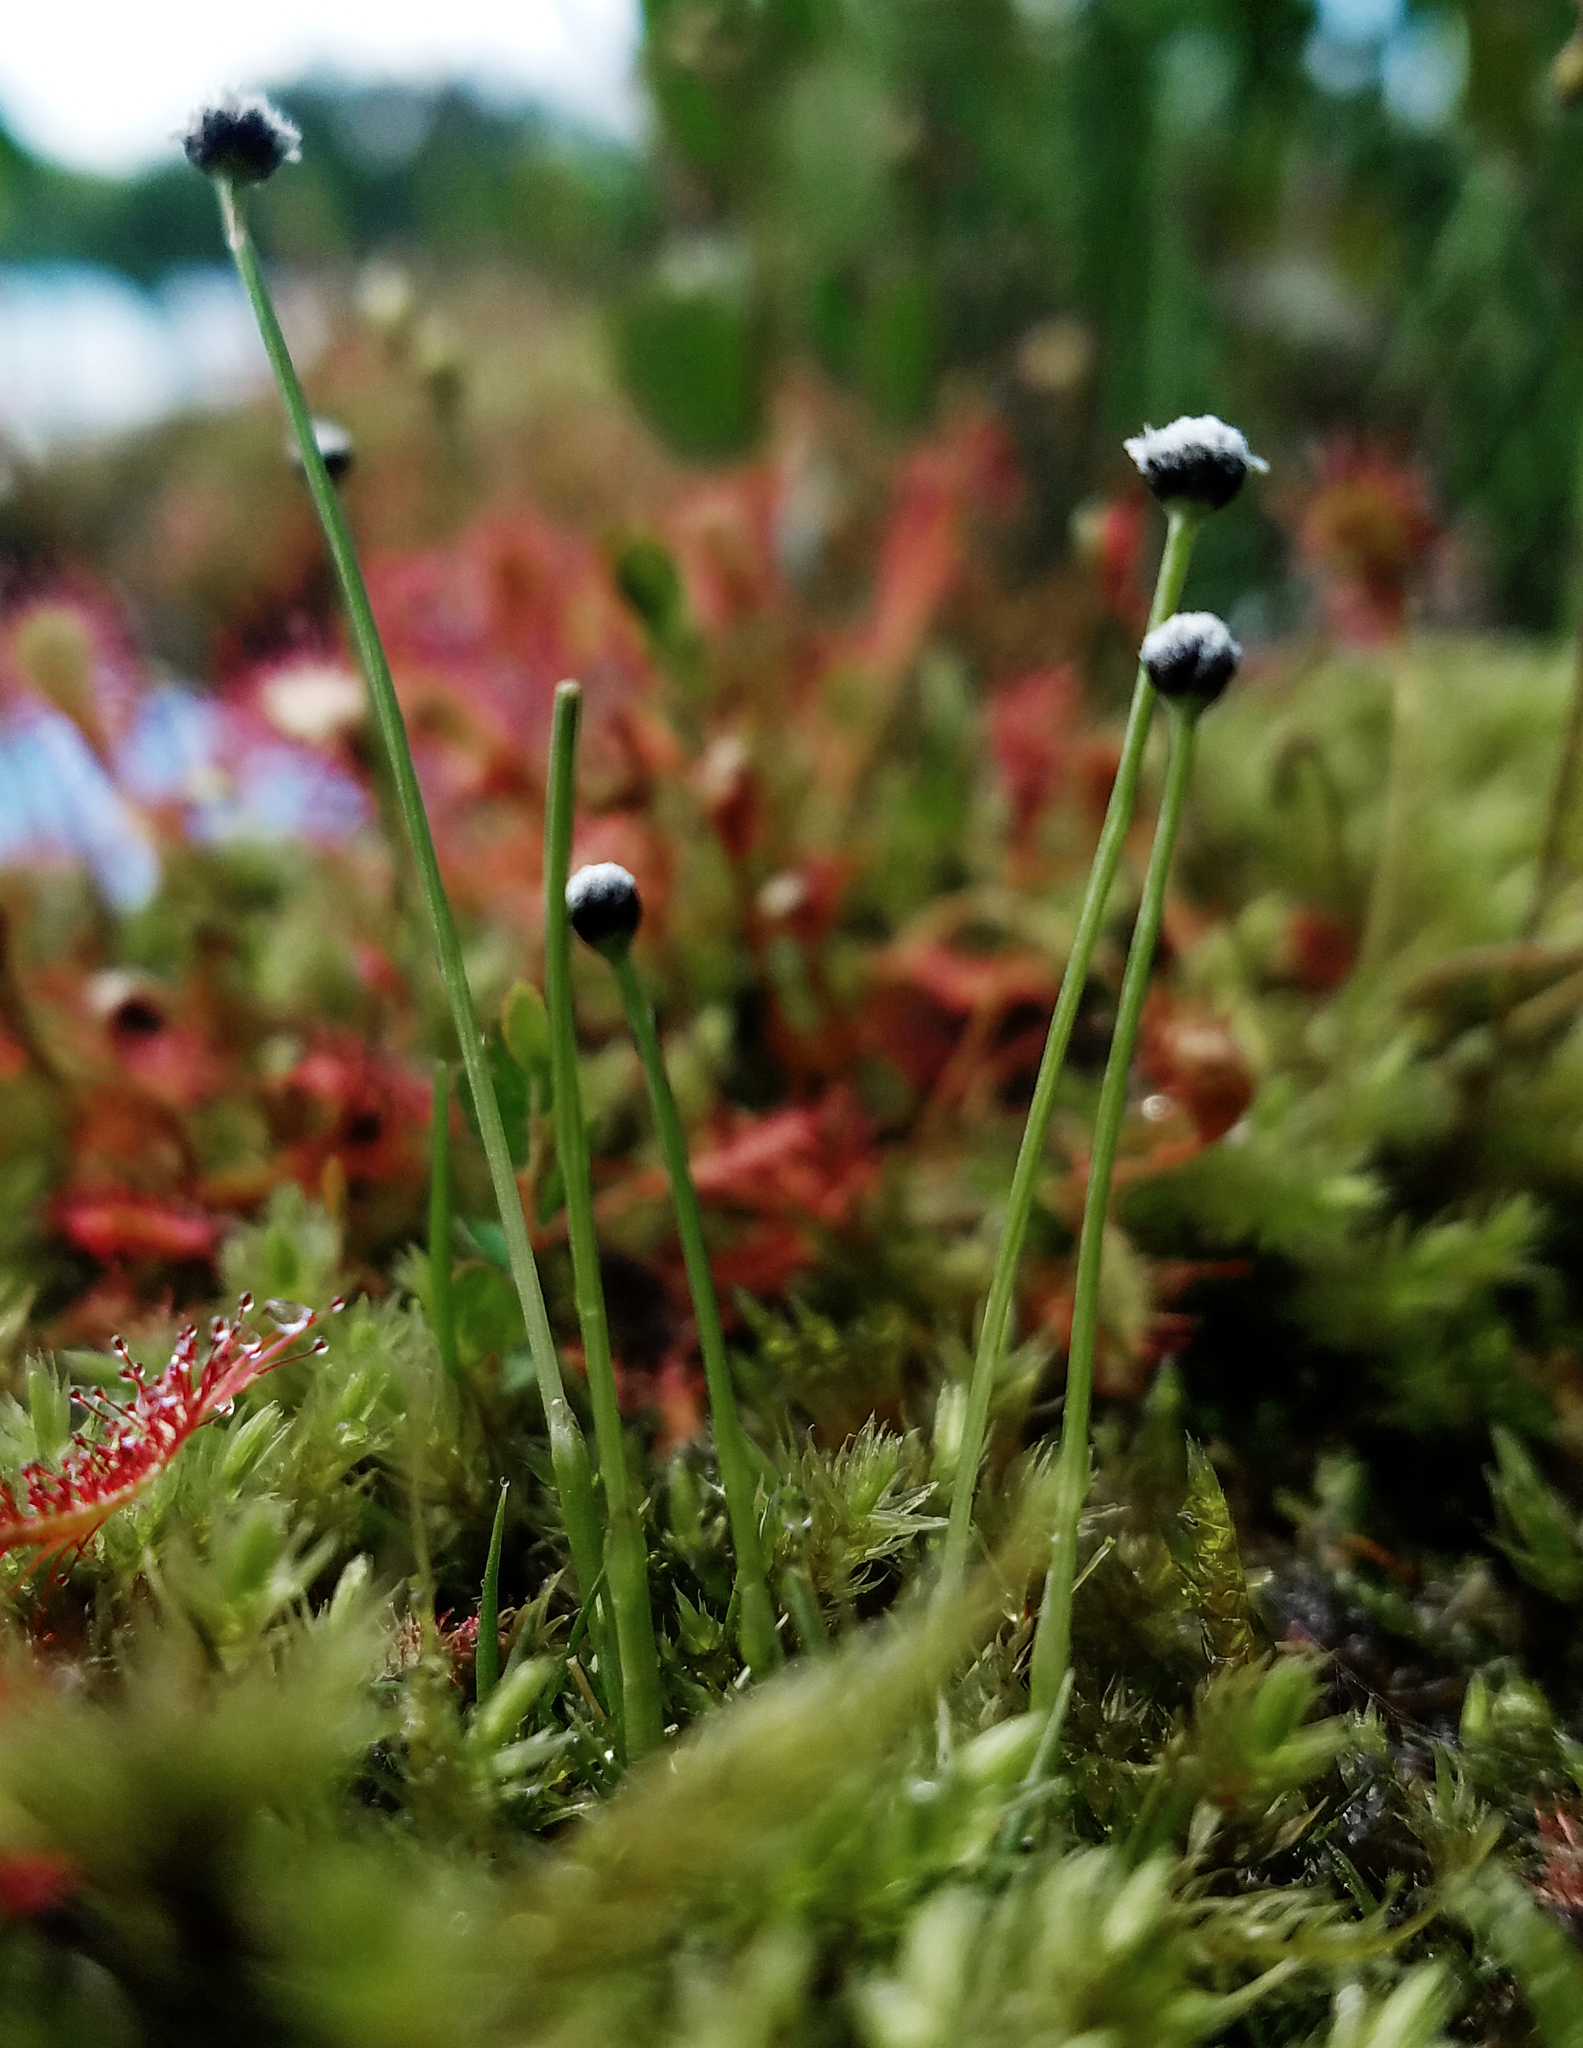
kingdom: Plantae
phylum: Tracheophyta
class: Liliopsida
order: Poales
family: Eriocaulaceae
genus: Eriocaulon
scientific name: Eriocaulon aquaticum
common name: Pipewort
